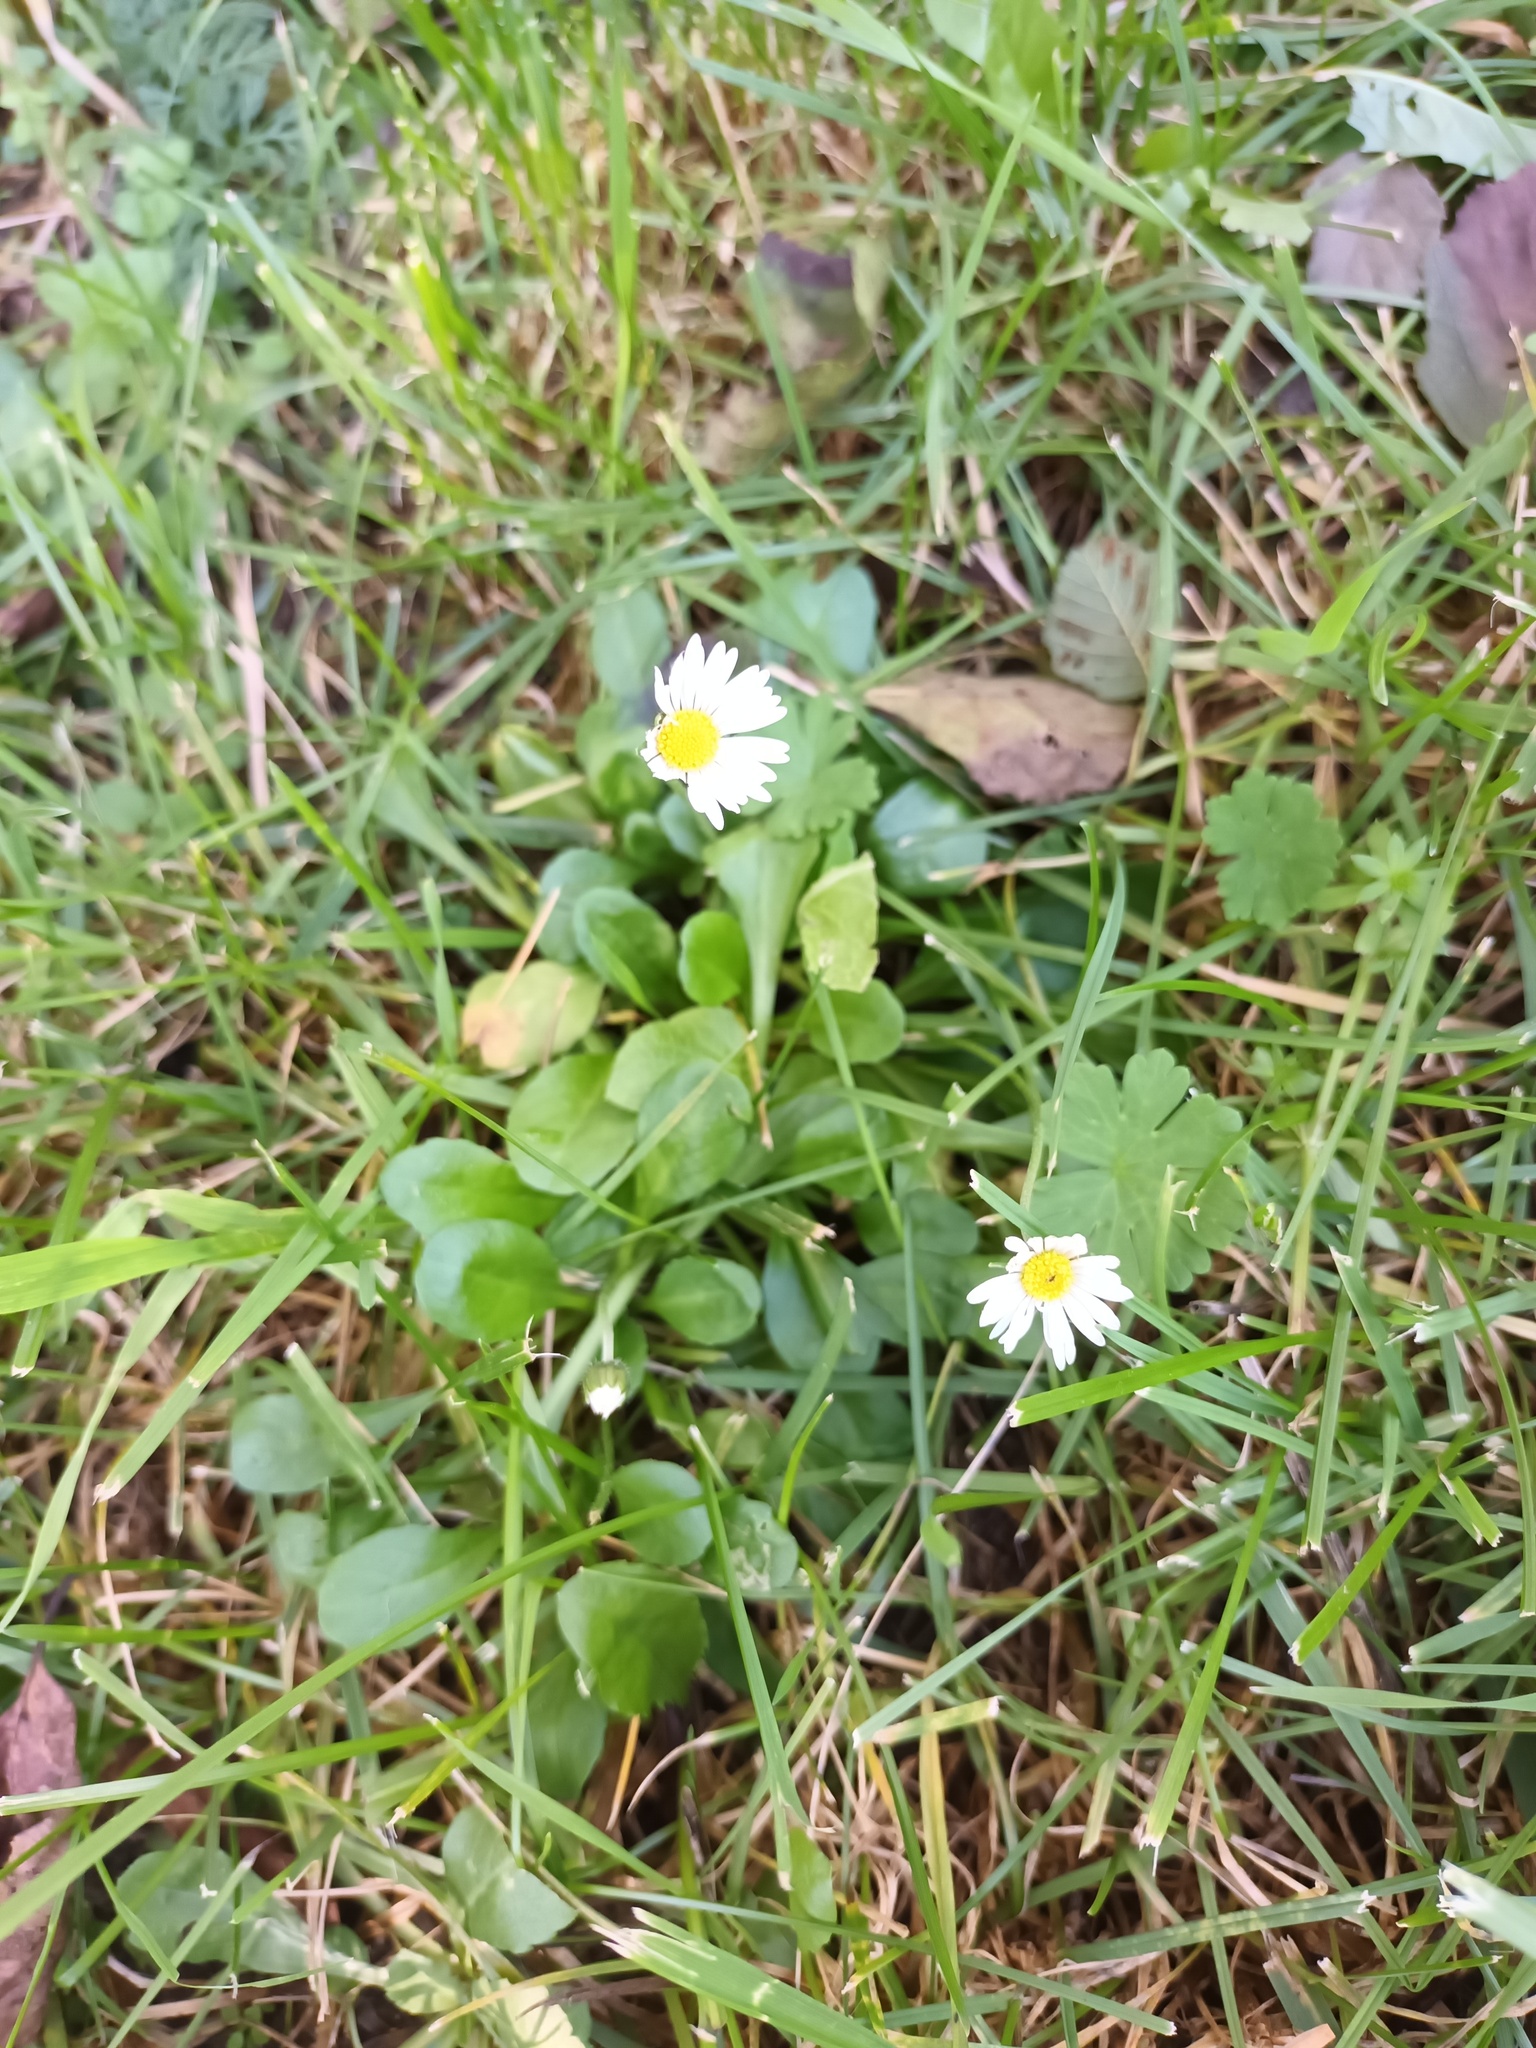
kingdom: Plantae
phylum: Tracheophyta
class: Magnoliopsida
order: Asterales
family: Asteraceae
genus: Bellis
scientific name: Bellis perennis
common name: Lawndaisy
